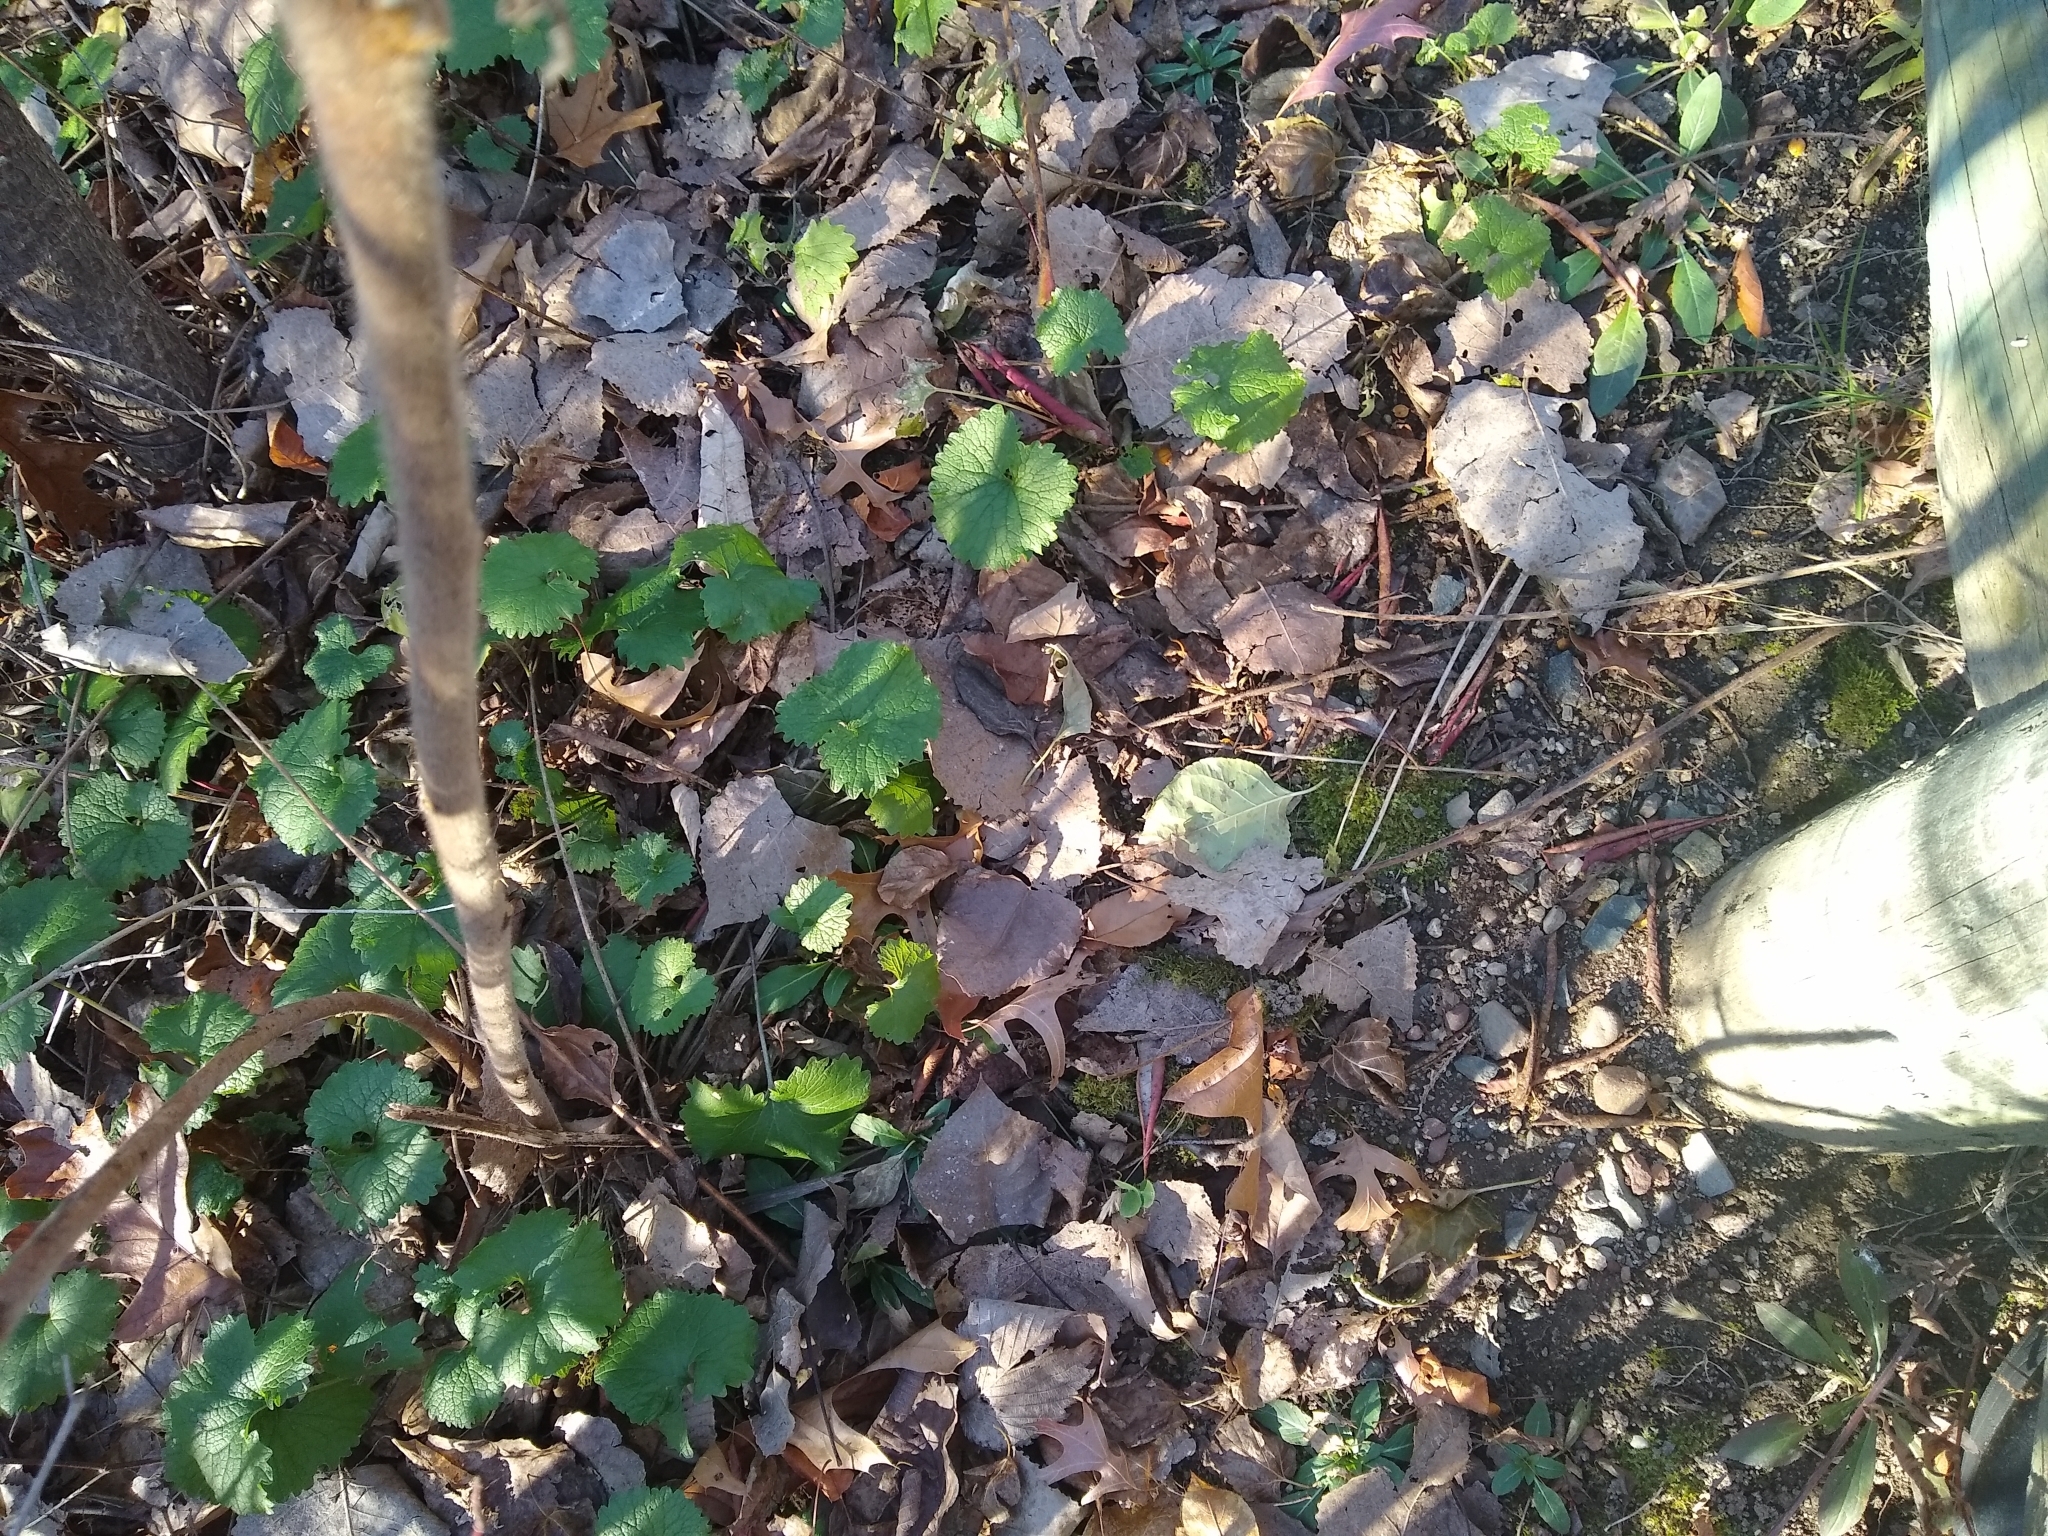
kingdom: Plantae
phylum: Tracheophyta
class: Magnoliopsida
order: Brassicales
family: Brassicaceae
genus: Alliaria
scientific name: Alliaria petiolata
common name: Garlic mustard
